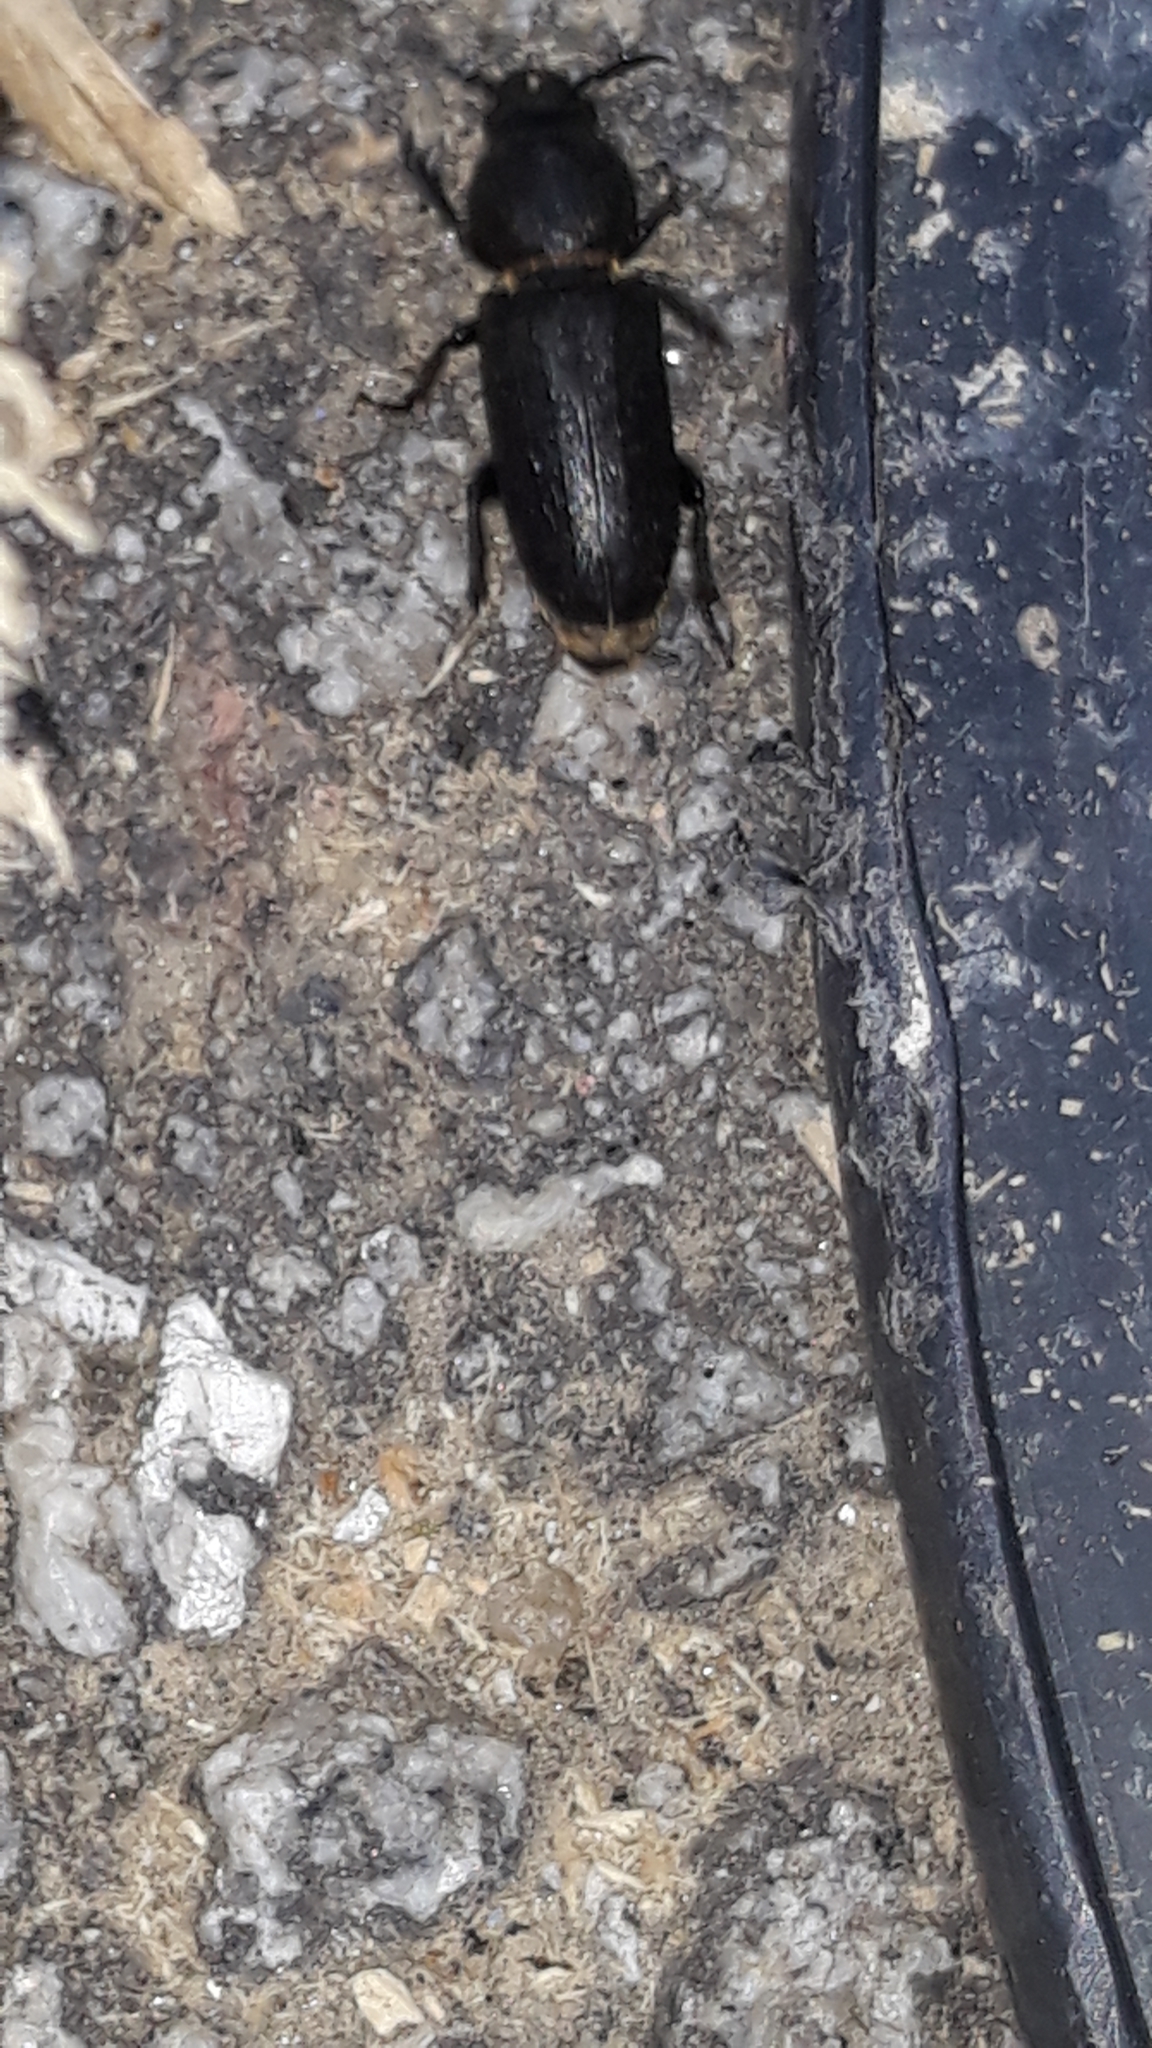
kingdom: Animalia
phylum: Arthropoda
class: Insecta
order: Coleoptera
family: Cerambycidae
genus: Spondylis
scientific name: Spondylis buprestoides
